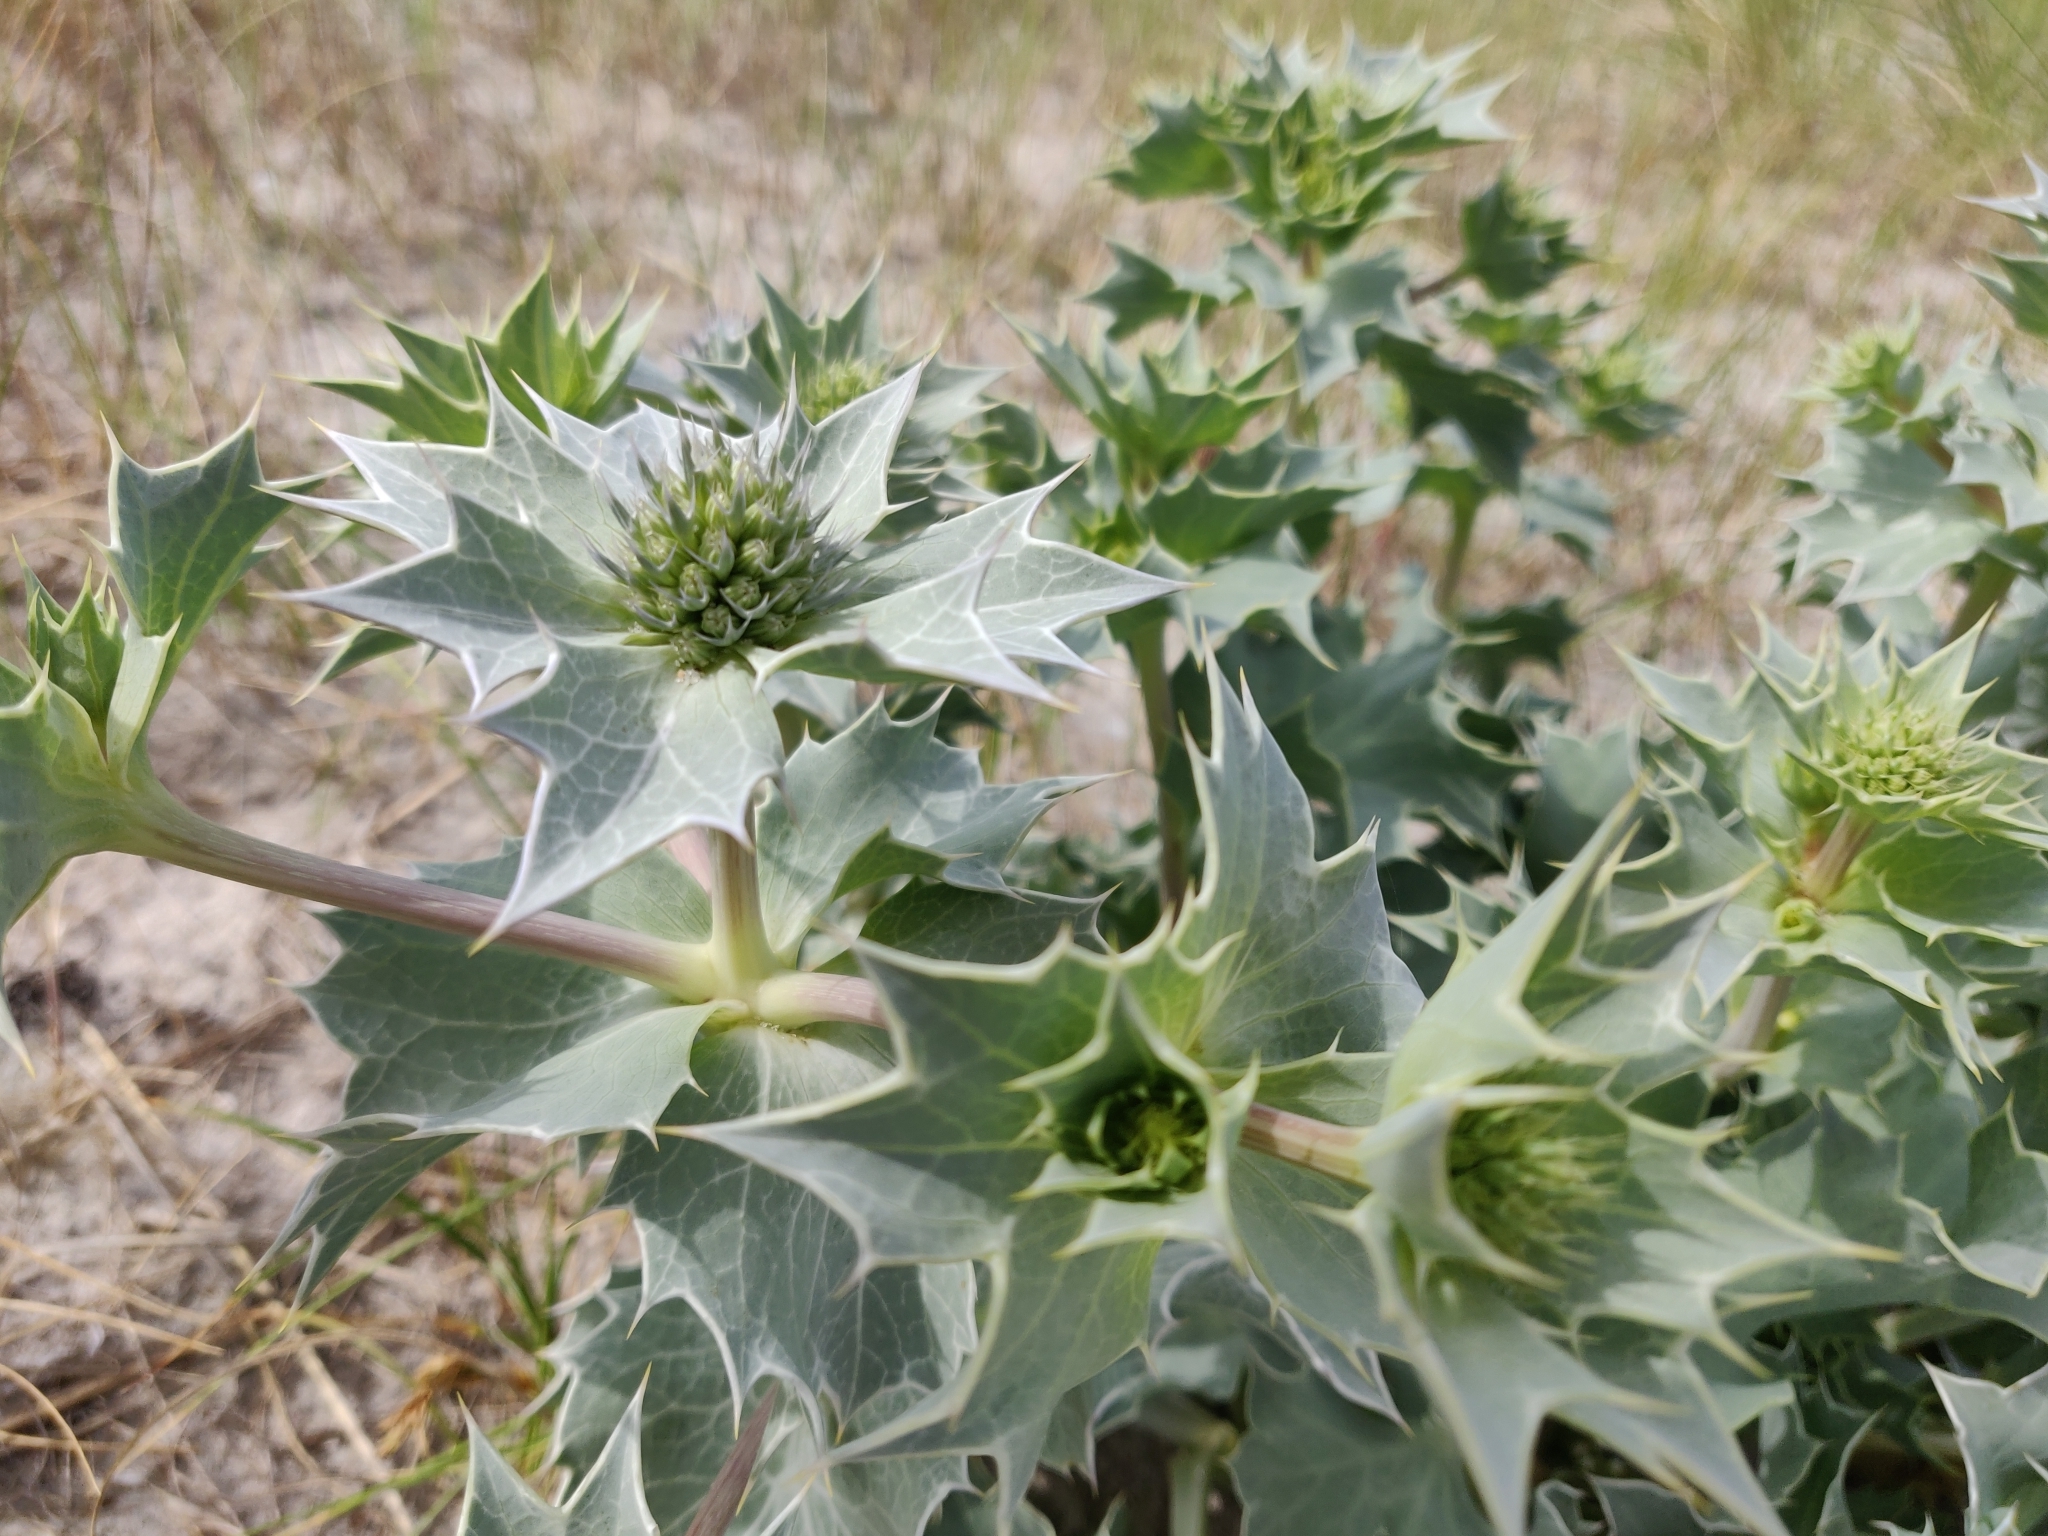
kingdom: Plantae
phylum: Tracheophyta
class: Magnoliopsida
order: Apiales
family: Apiaceae
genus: Eryngium
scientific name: Eryngium maritimum
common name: Sea-holly
